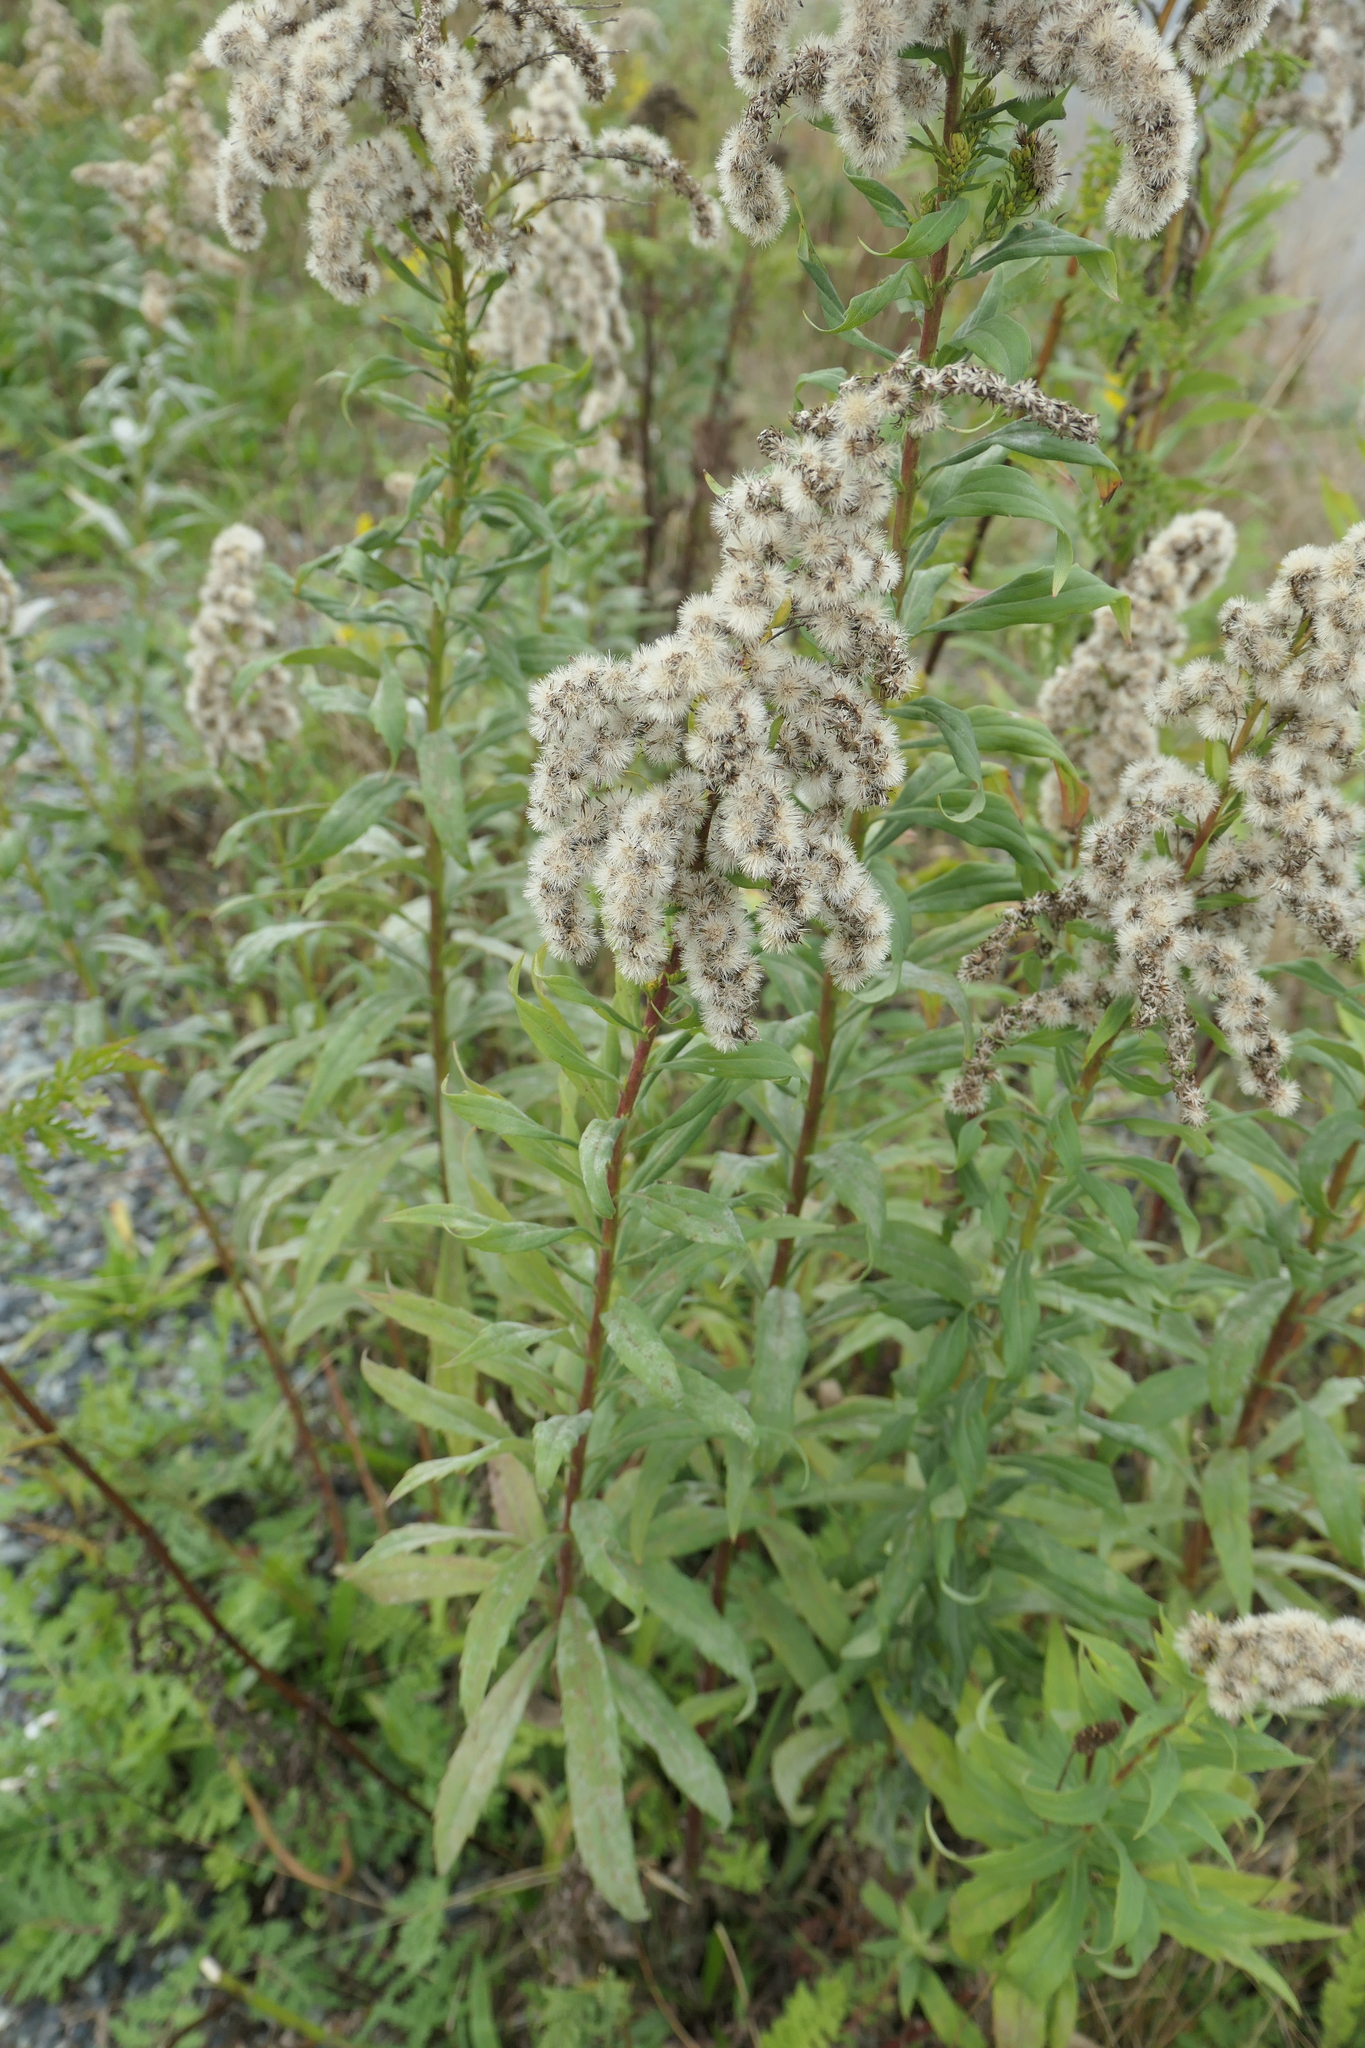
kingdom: Plantae
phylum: Tracheophyta
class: Magnoliopsida
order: Asterales
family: Asteraceae
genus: Solidago
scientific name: Solidago lepida
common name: Western canada goldenrod
